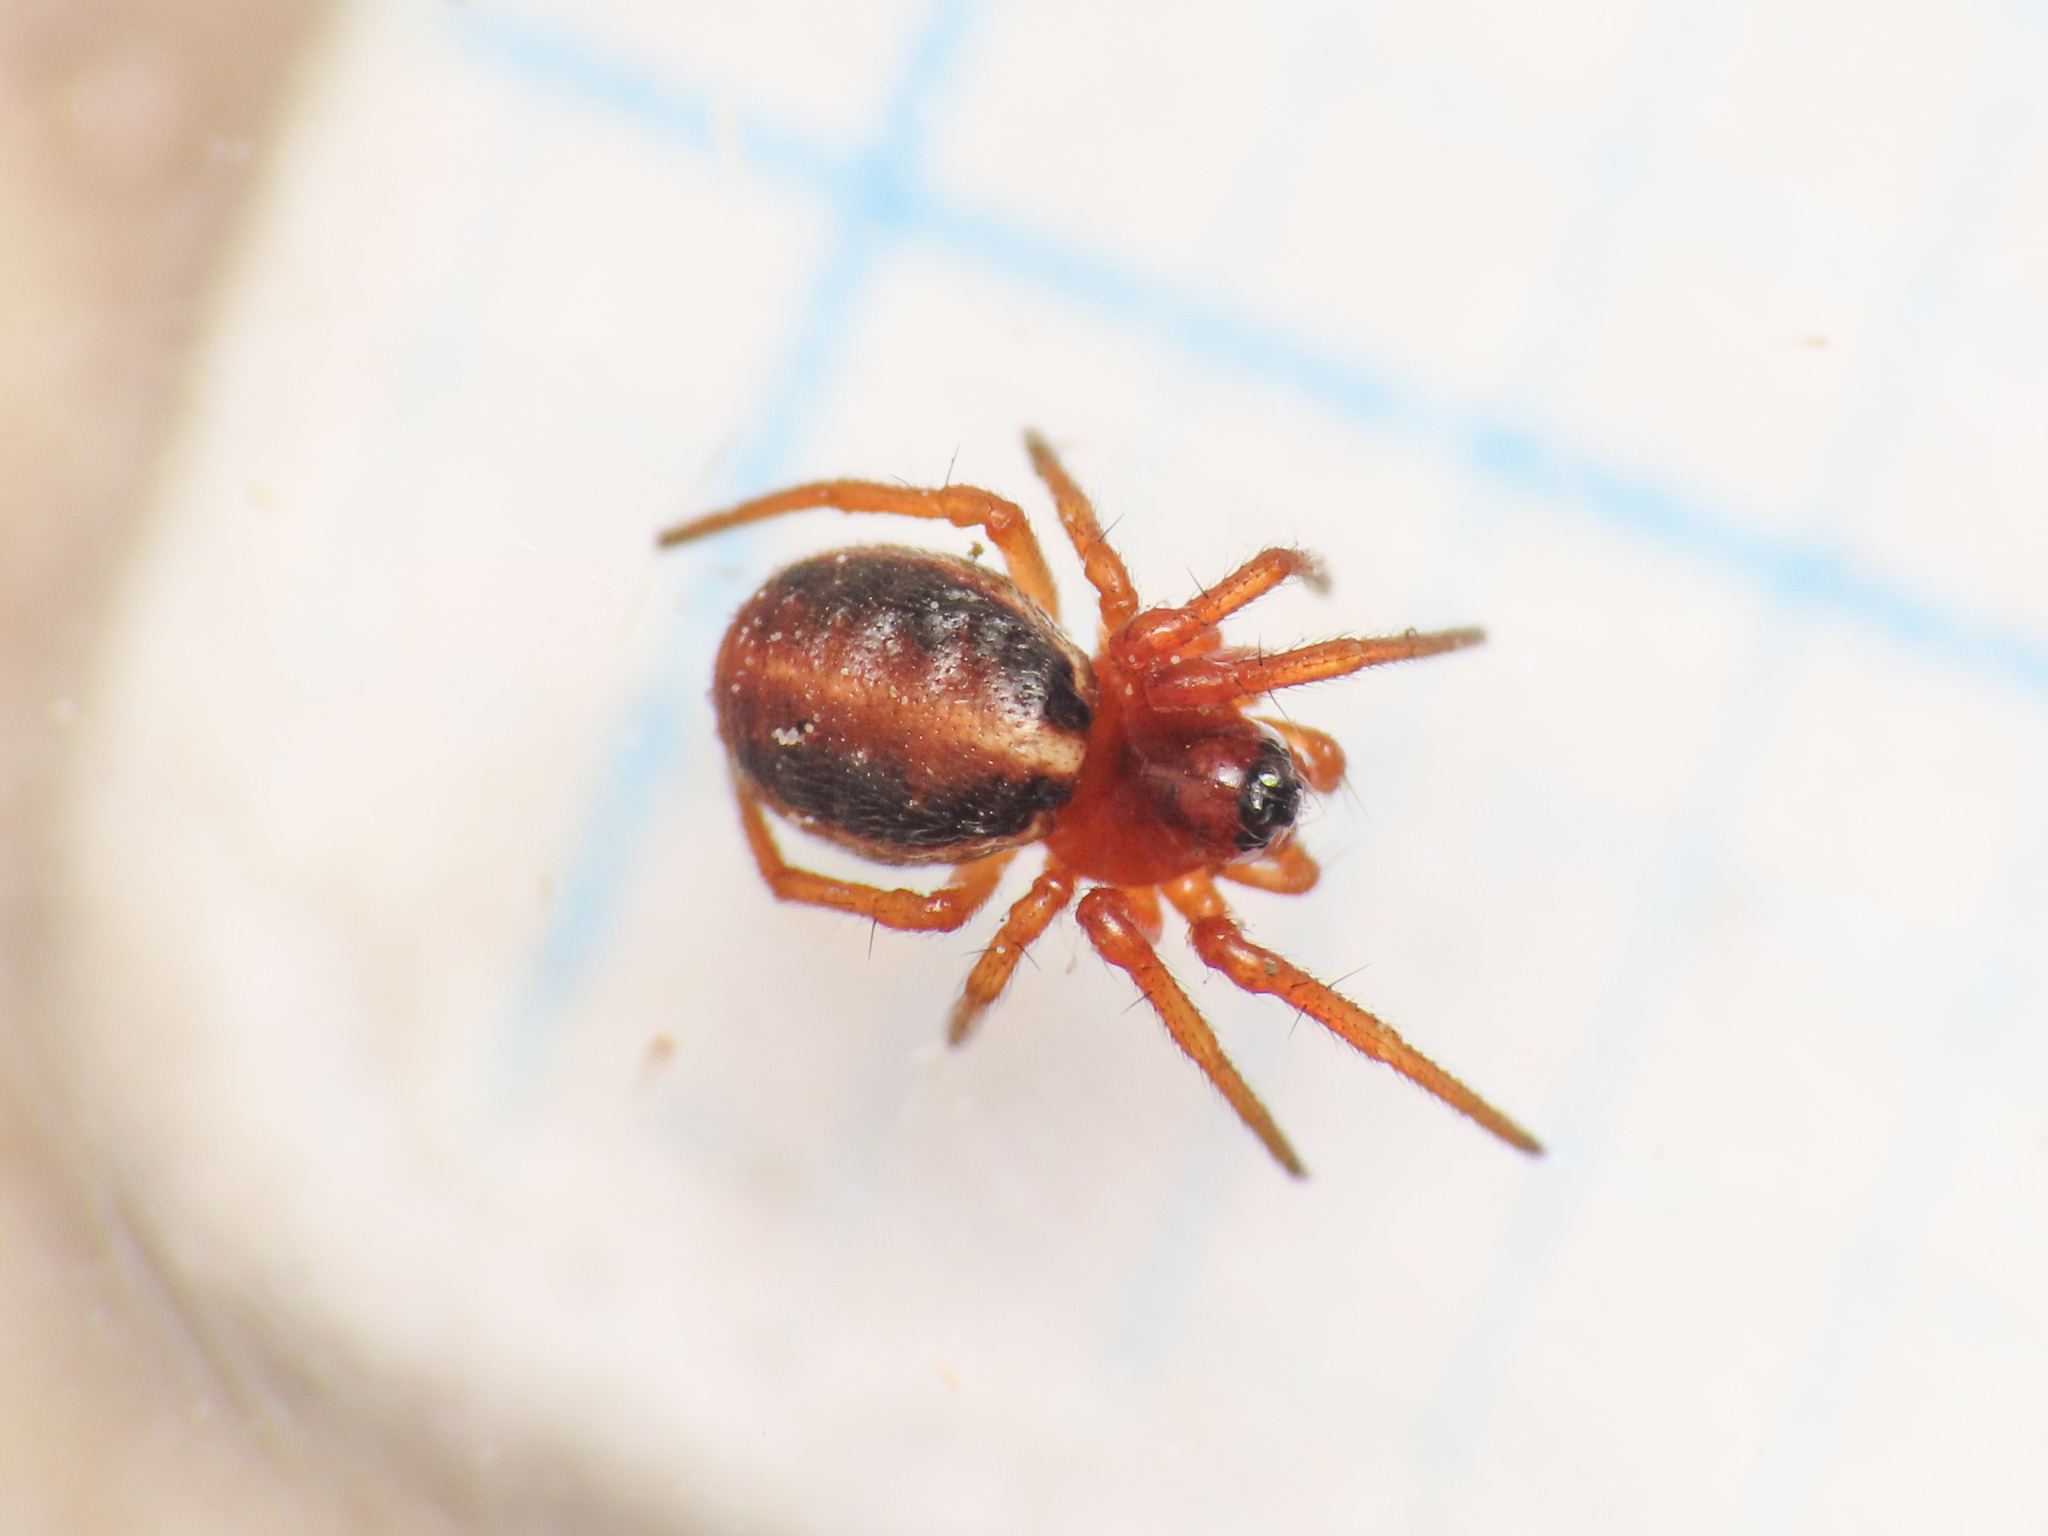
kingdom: Animalia
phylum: Arthropoda
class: Arachnida
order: Araneae
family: Araneidae
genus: Hypsosinga
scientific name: Hypsosinga heri
